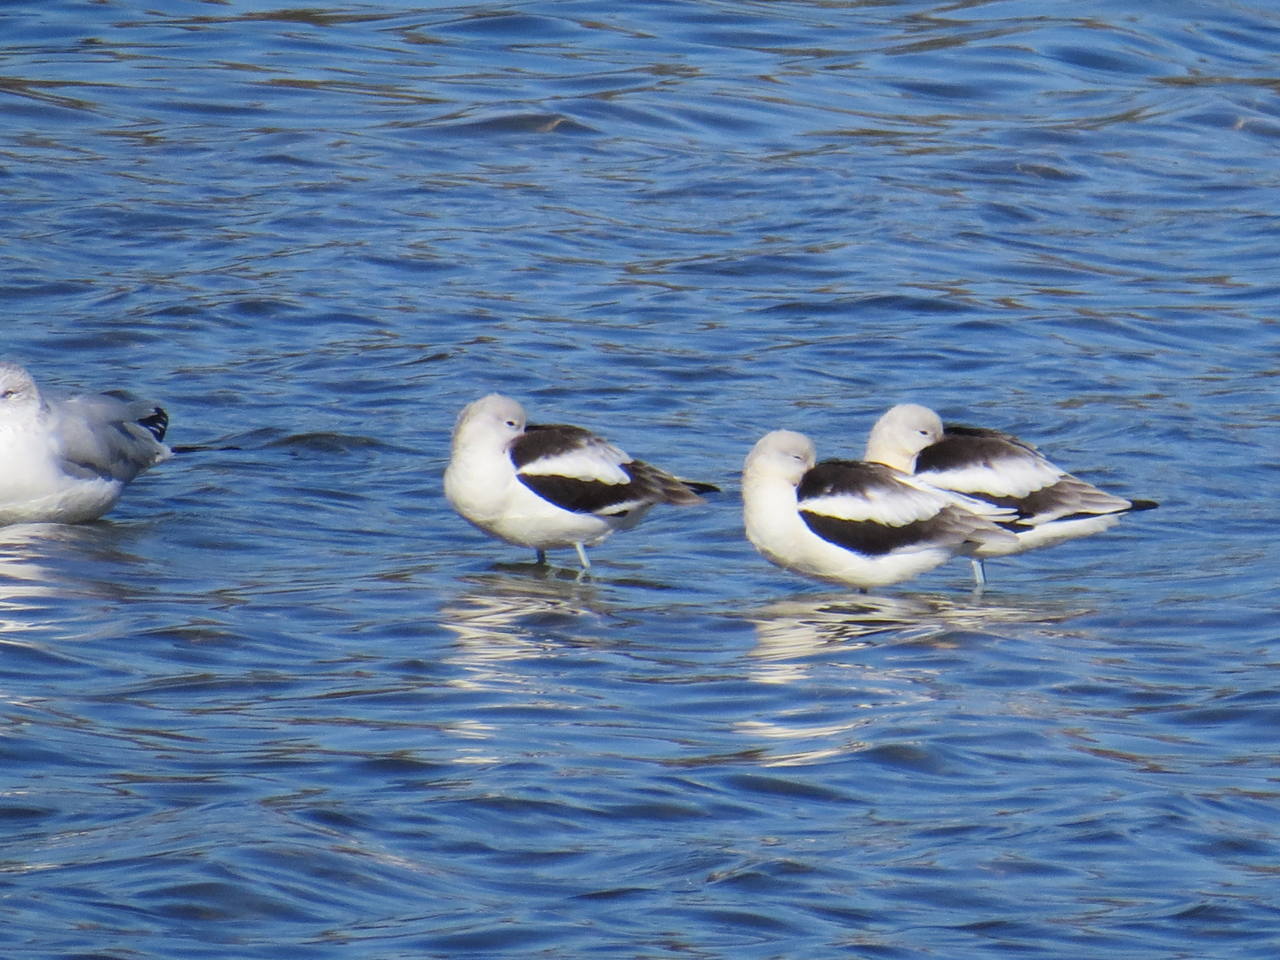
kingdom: Animalia
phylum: Chordata
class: Aves
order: Charadriiformes
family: Recurvirostridae
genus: Recurvirostra
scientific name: Recurvirostra americana
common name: American avocet
